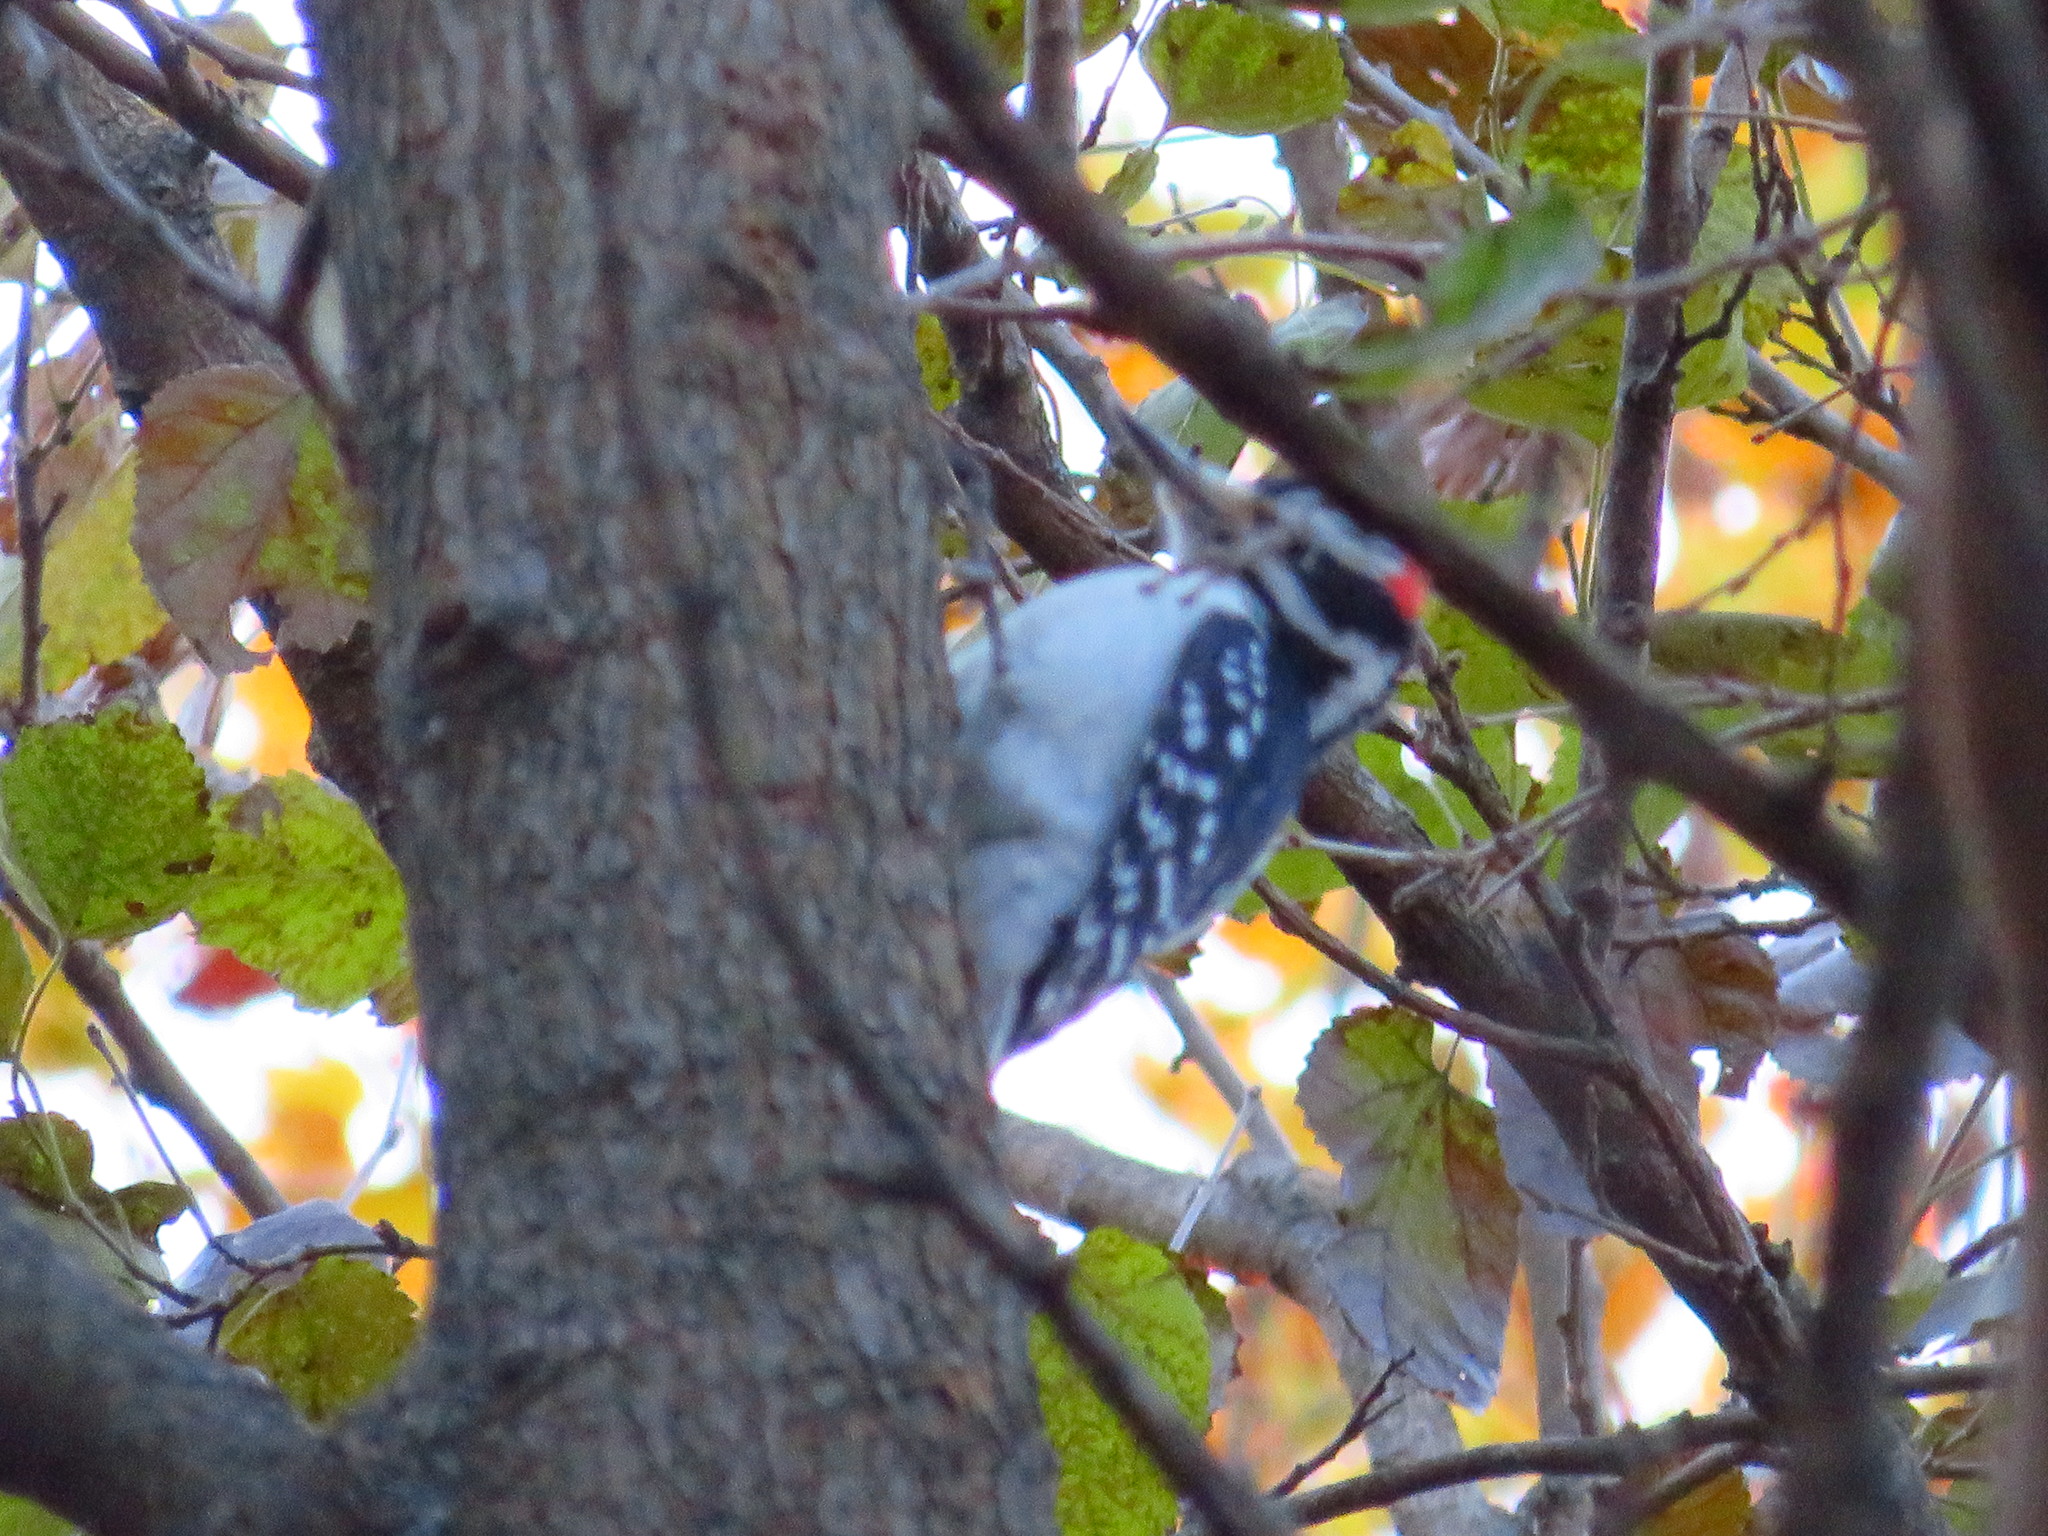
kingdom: Animalia
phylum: Chordata
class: Aves
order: Piciformes
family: Picidae
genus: Leuconotopicus
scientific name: Leuconotopicus villosus
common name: Hairy woodpecker
